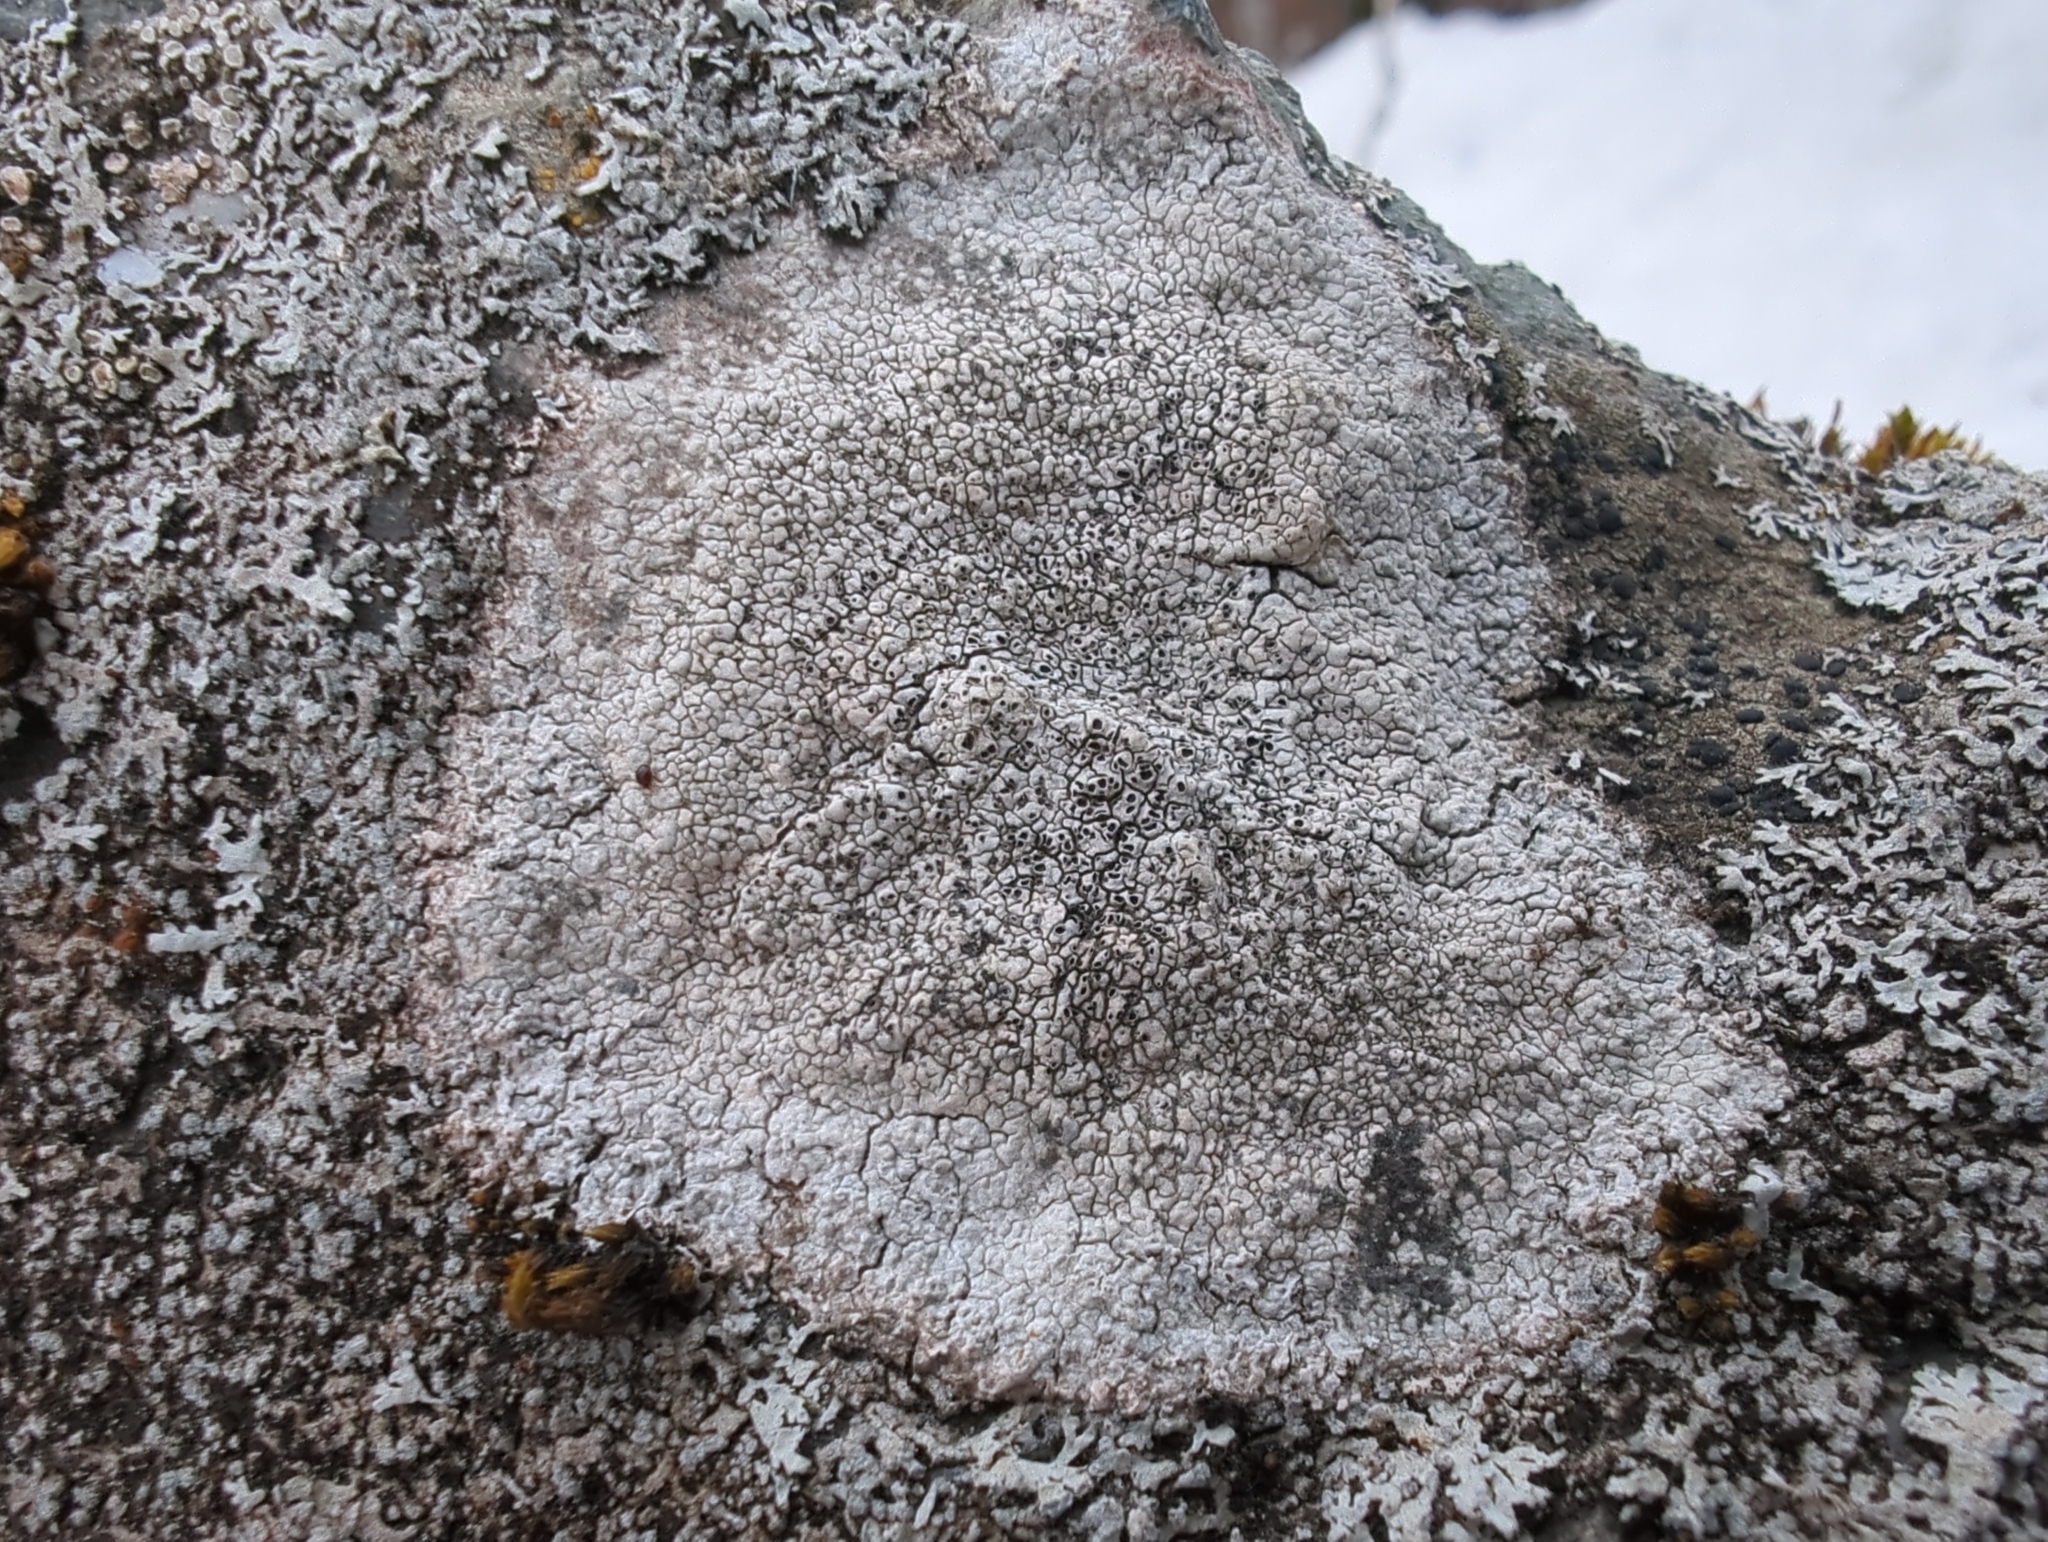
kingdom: Fungi
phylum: Ascomycota
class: Lecanoromycetes
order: Pertusariales
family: Megasporaceae
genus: Aspicilia
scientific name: Aspicilia cinerea
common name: Cinder lichen
